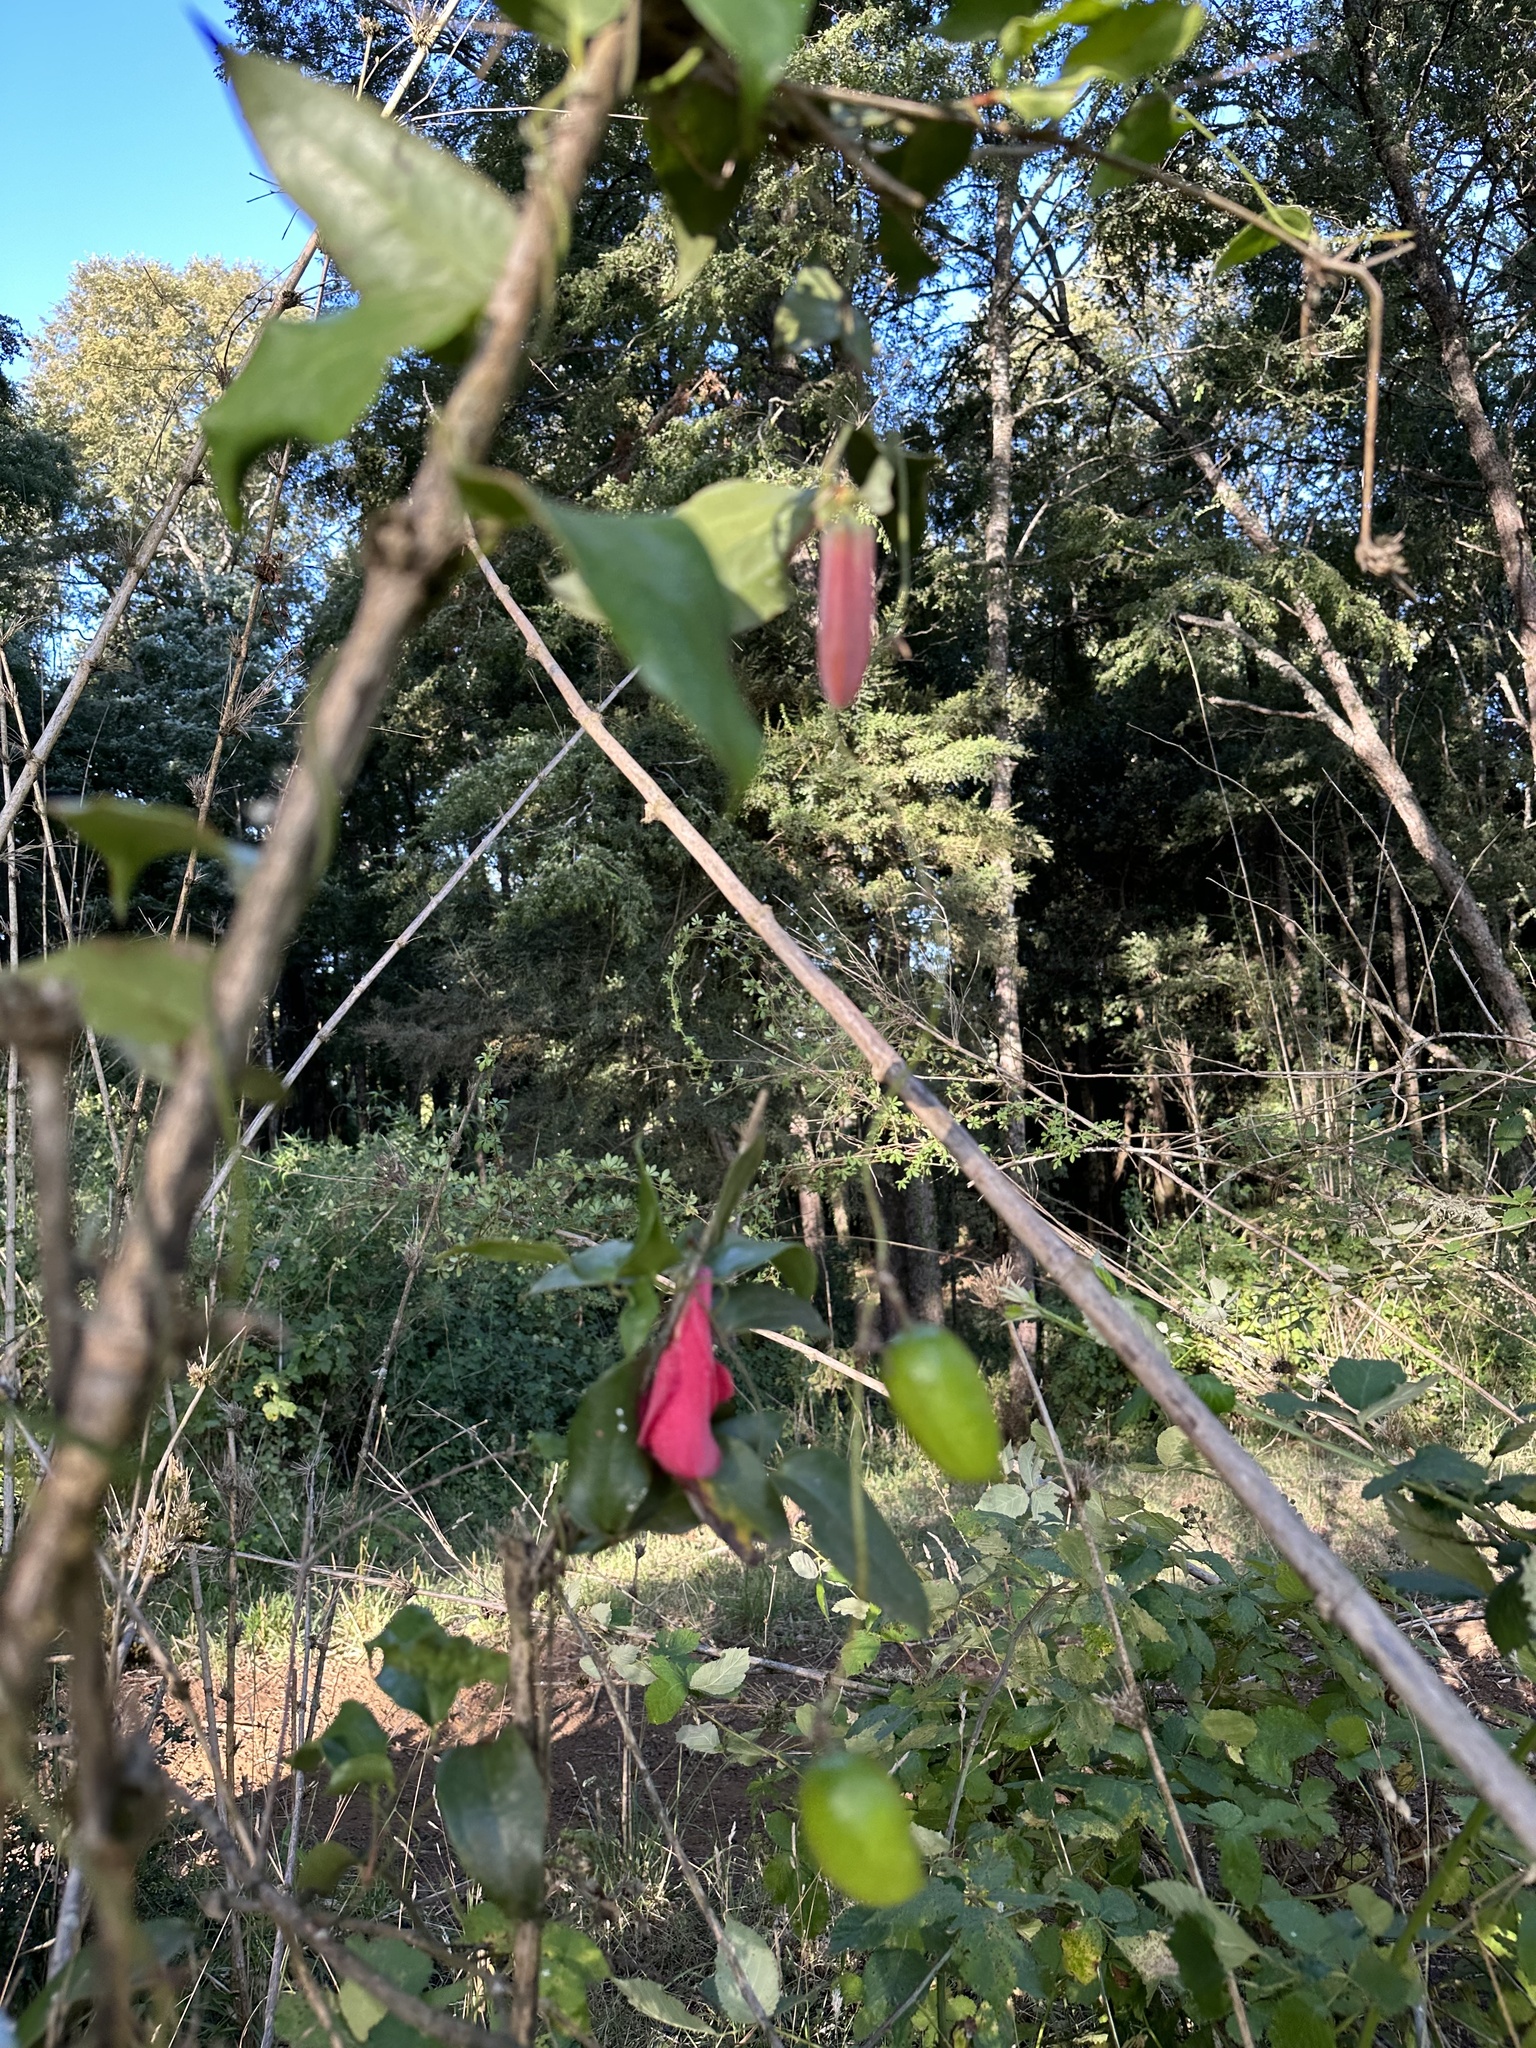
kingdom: Plantae
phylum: Tracheophyta
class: Liliopsida
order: Liliales
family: Philesiaceae
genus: Lapageria
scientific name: Lapageria rosea
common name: Chilean-bellflower
